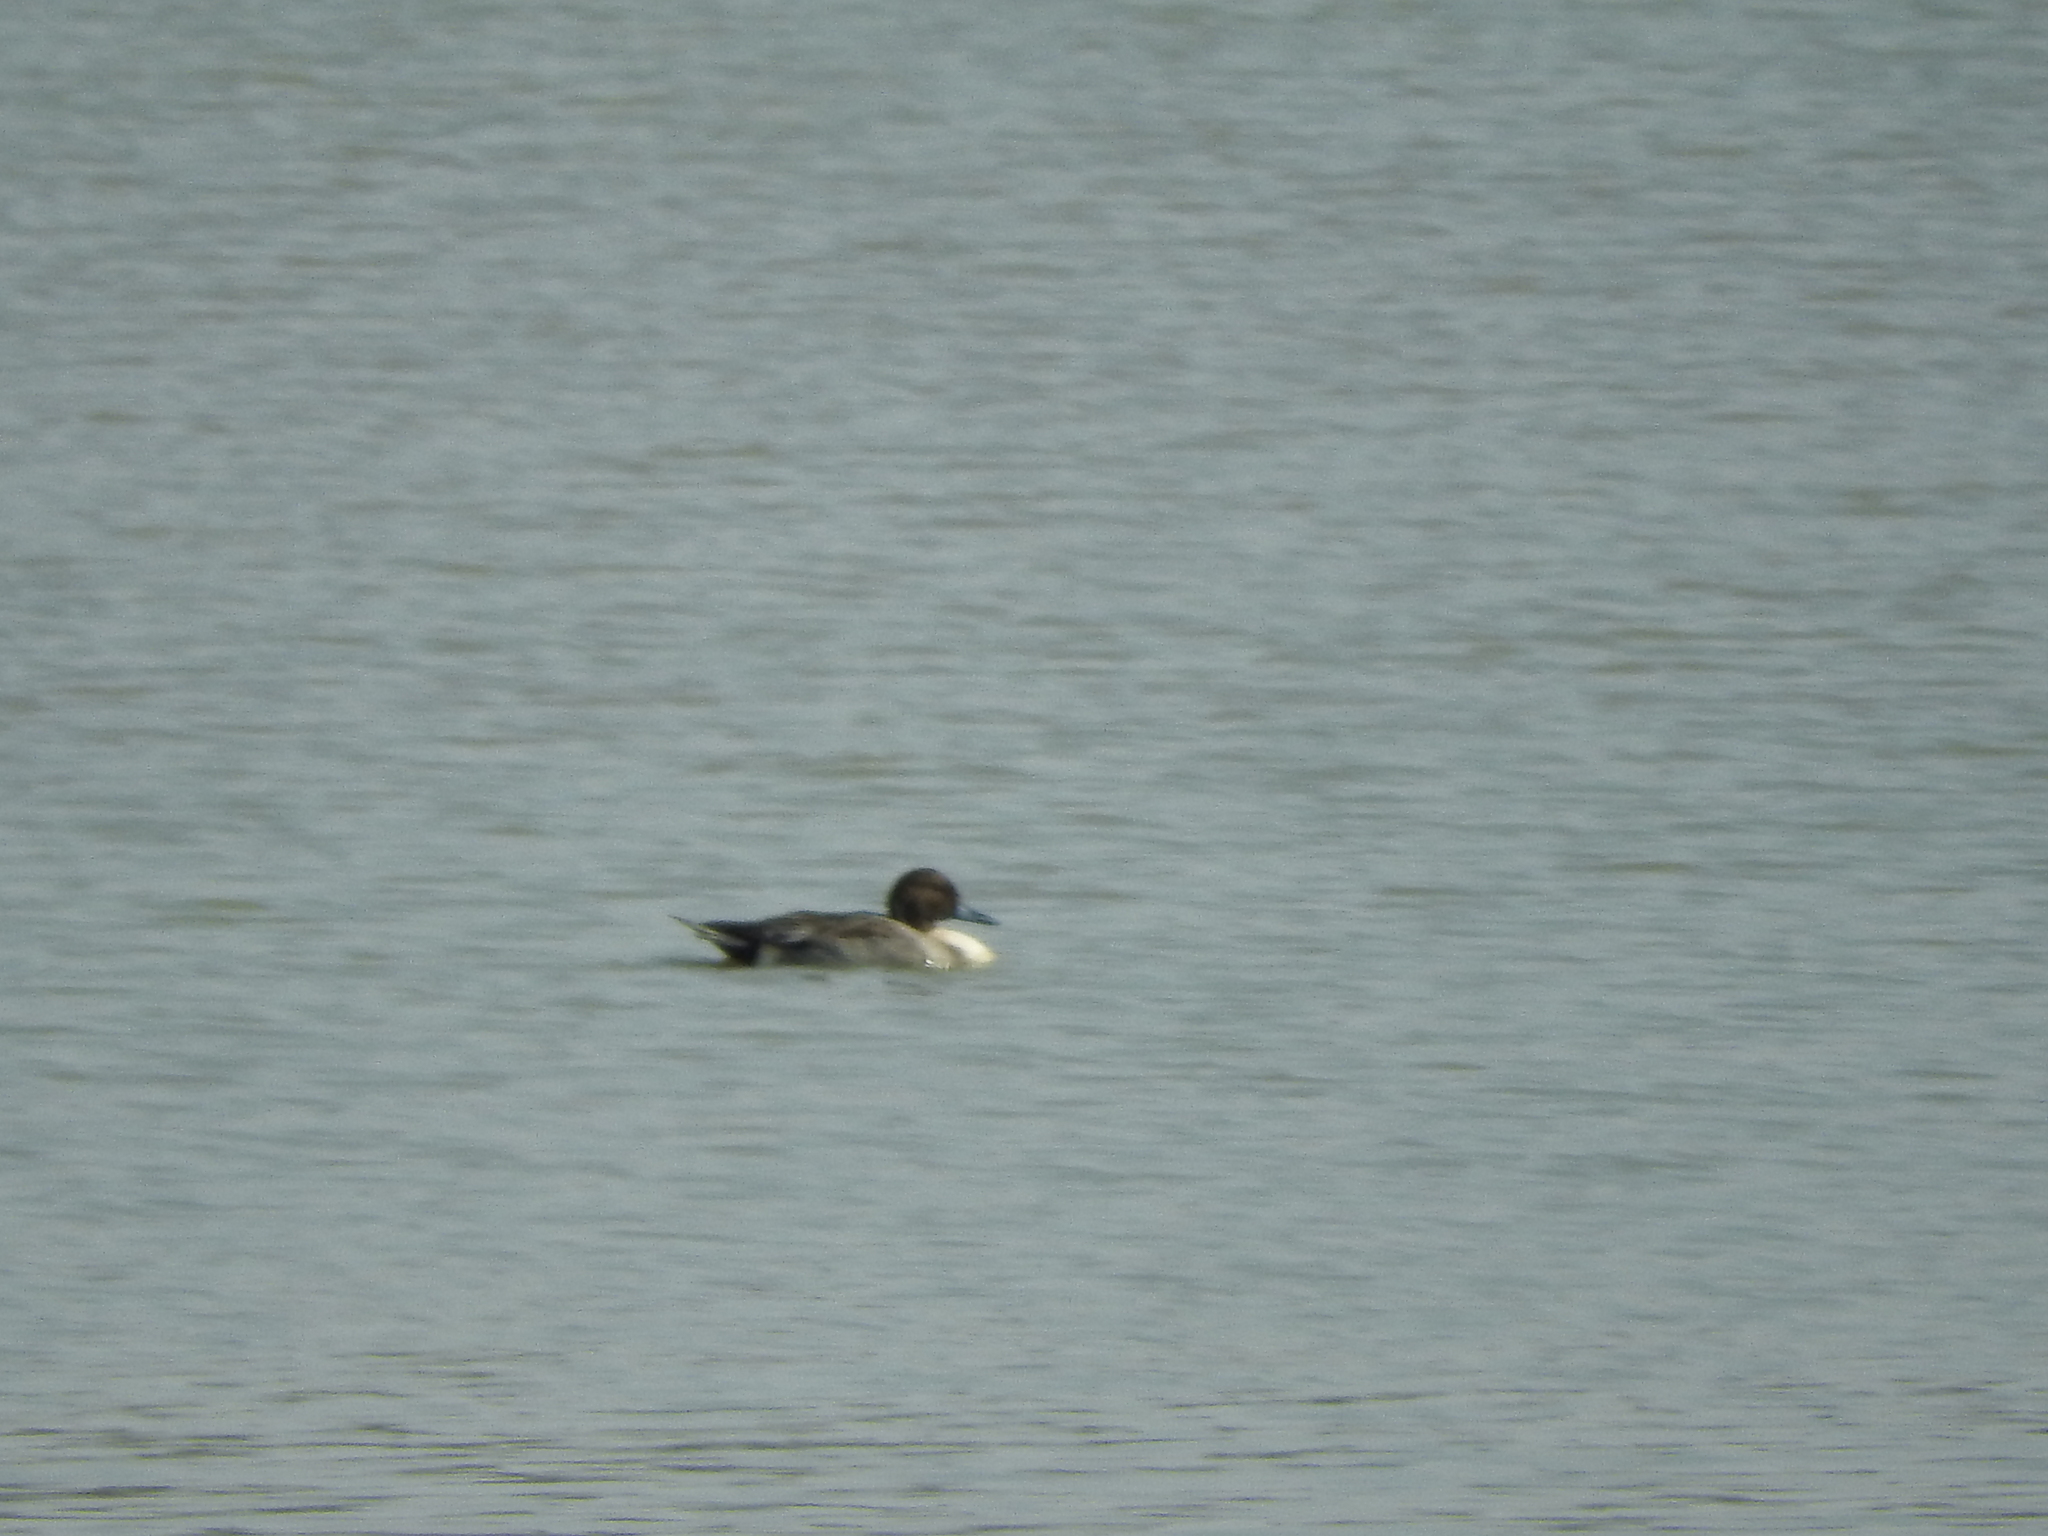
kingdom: Animalia
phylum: Chordata
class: Aves
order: Anseriformes
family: Anatidae
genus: Anas
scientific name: Anas acuta
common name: Northern pintail
